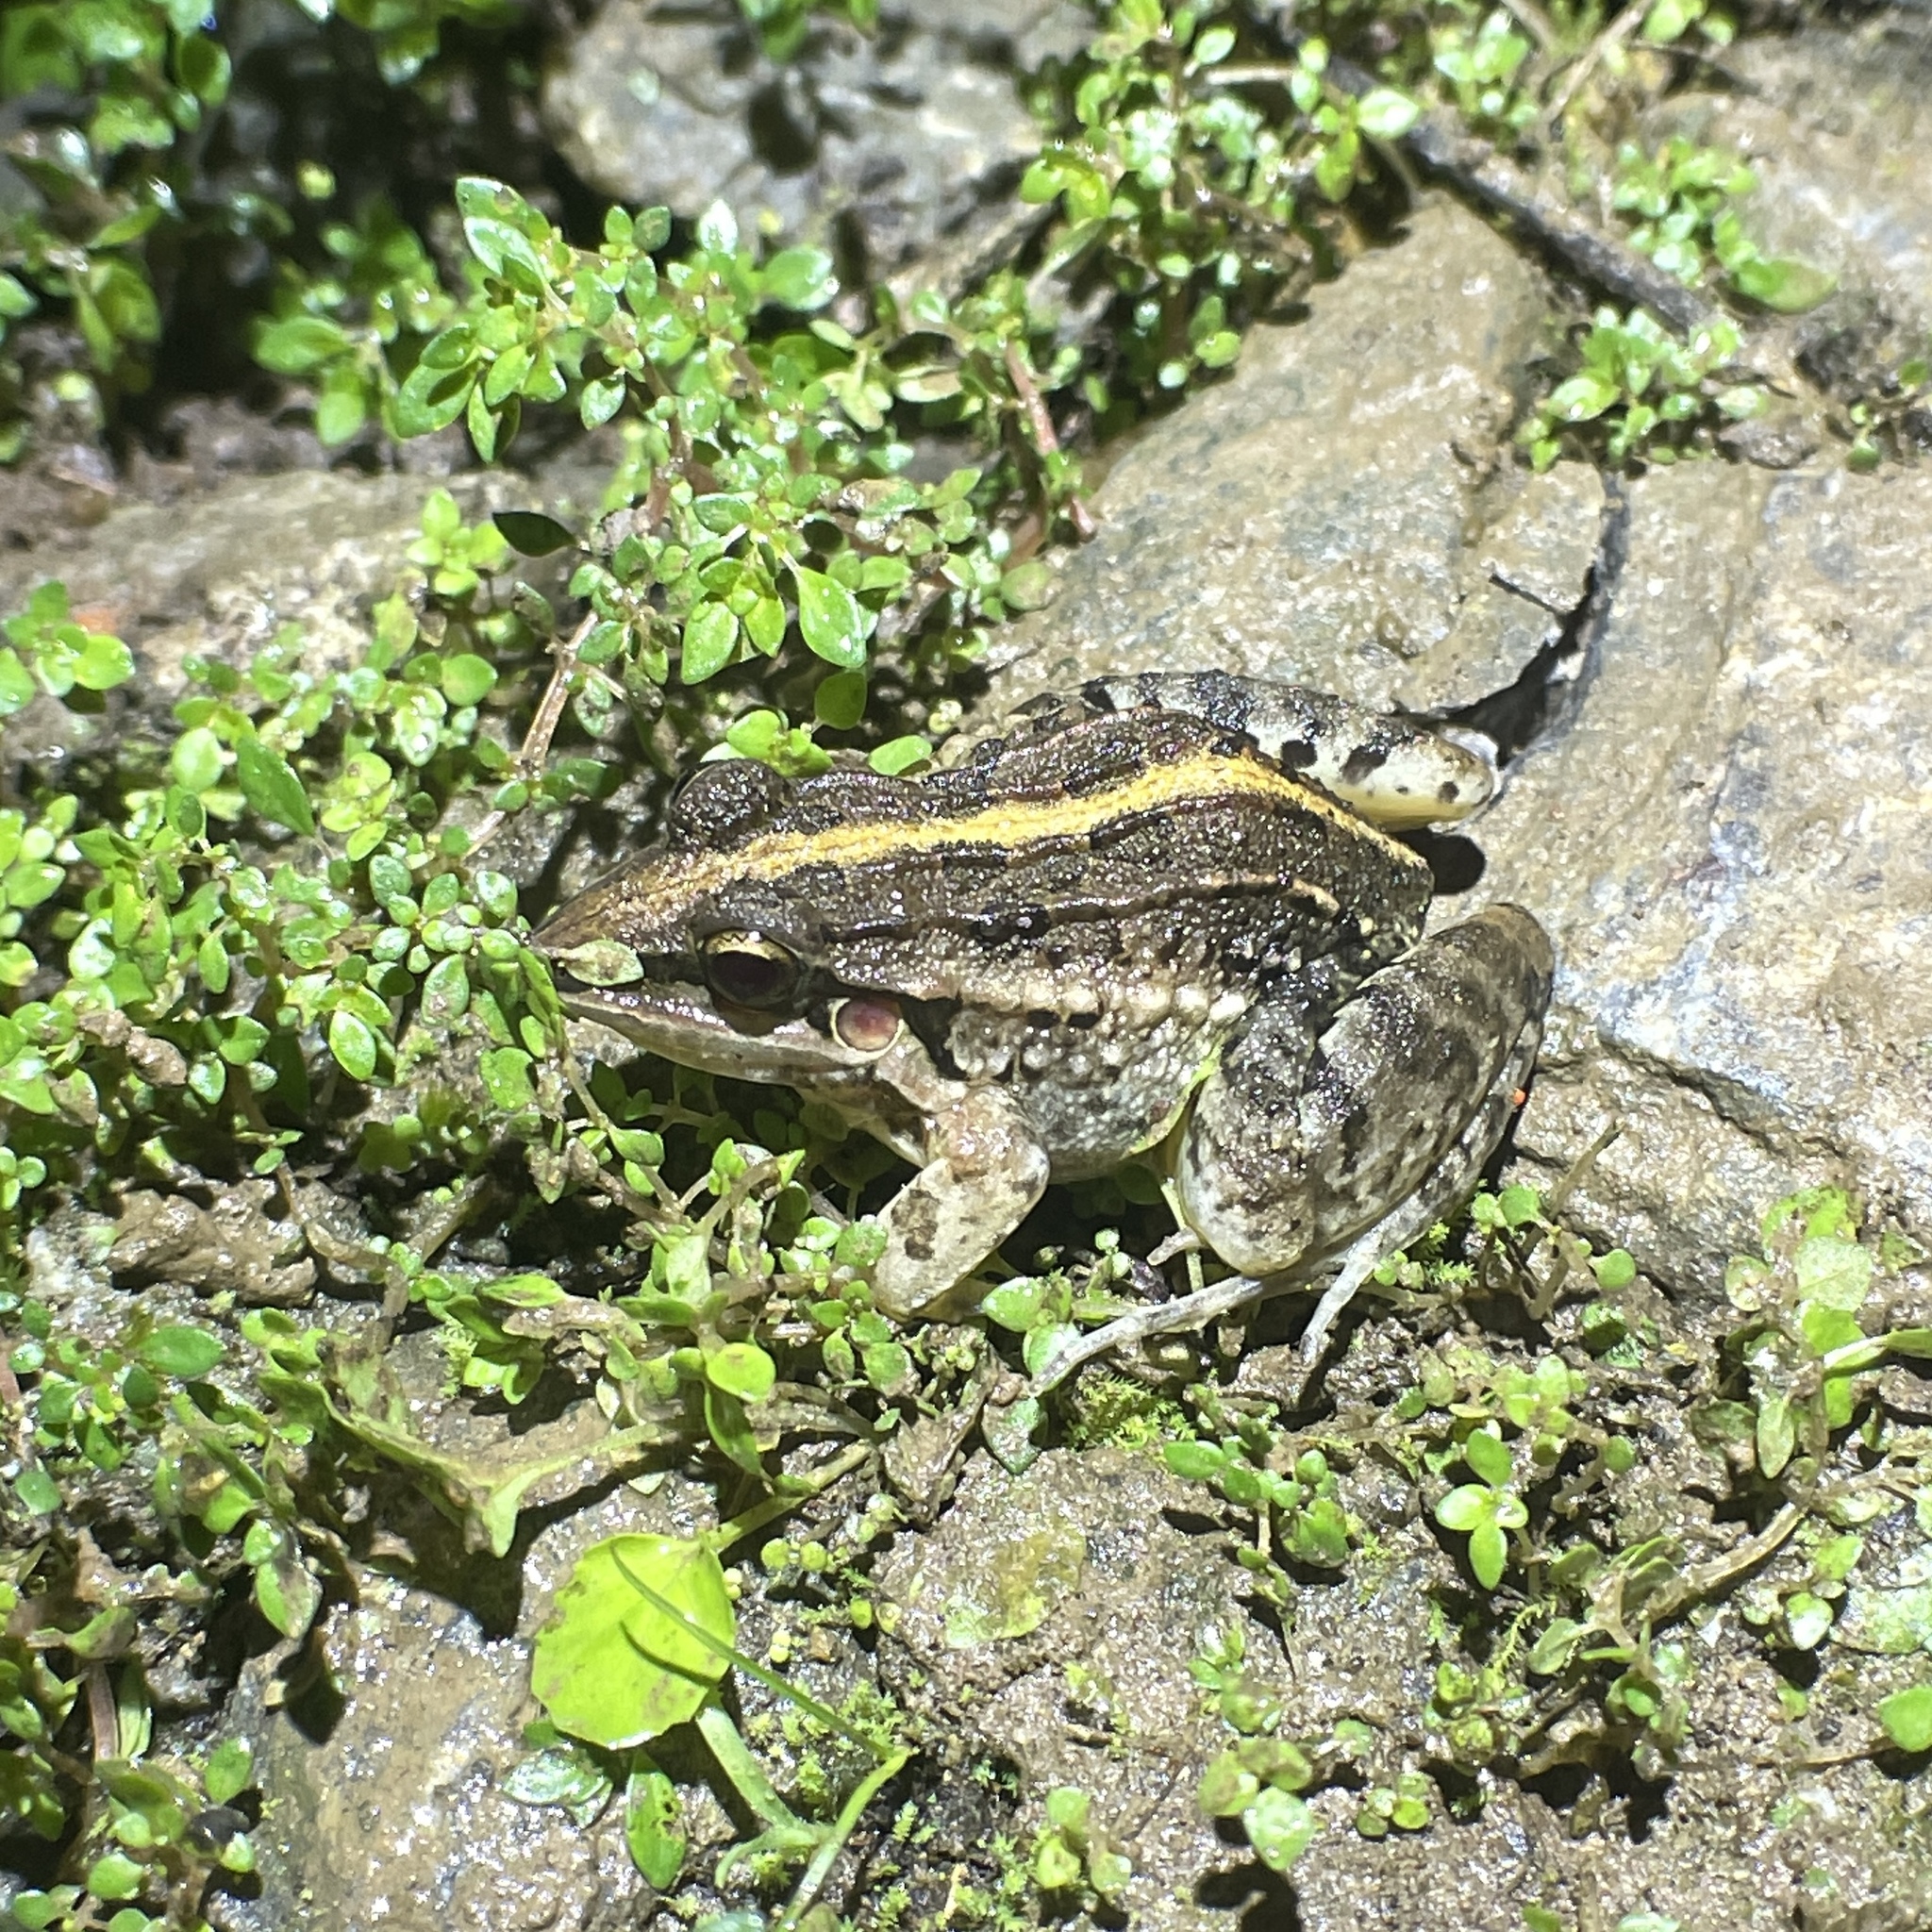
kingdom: Animalia
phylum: Chordata
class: Amphibia
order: Anura
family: Leptodactylidae
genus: Leptodactylus
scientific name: Leptodactylus fuscus
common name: Rufous frog
